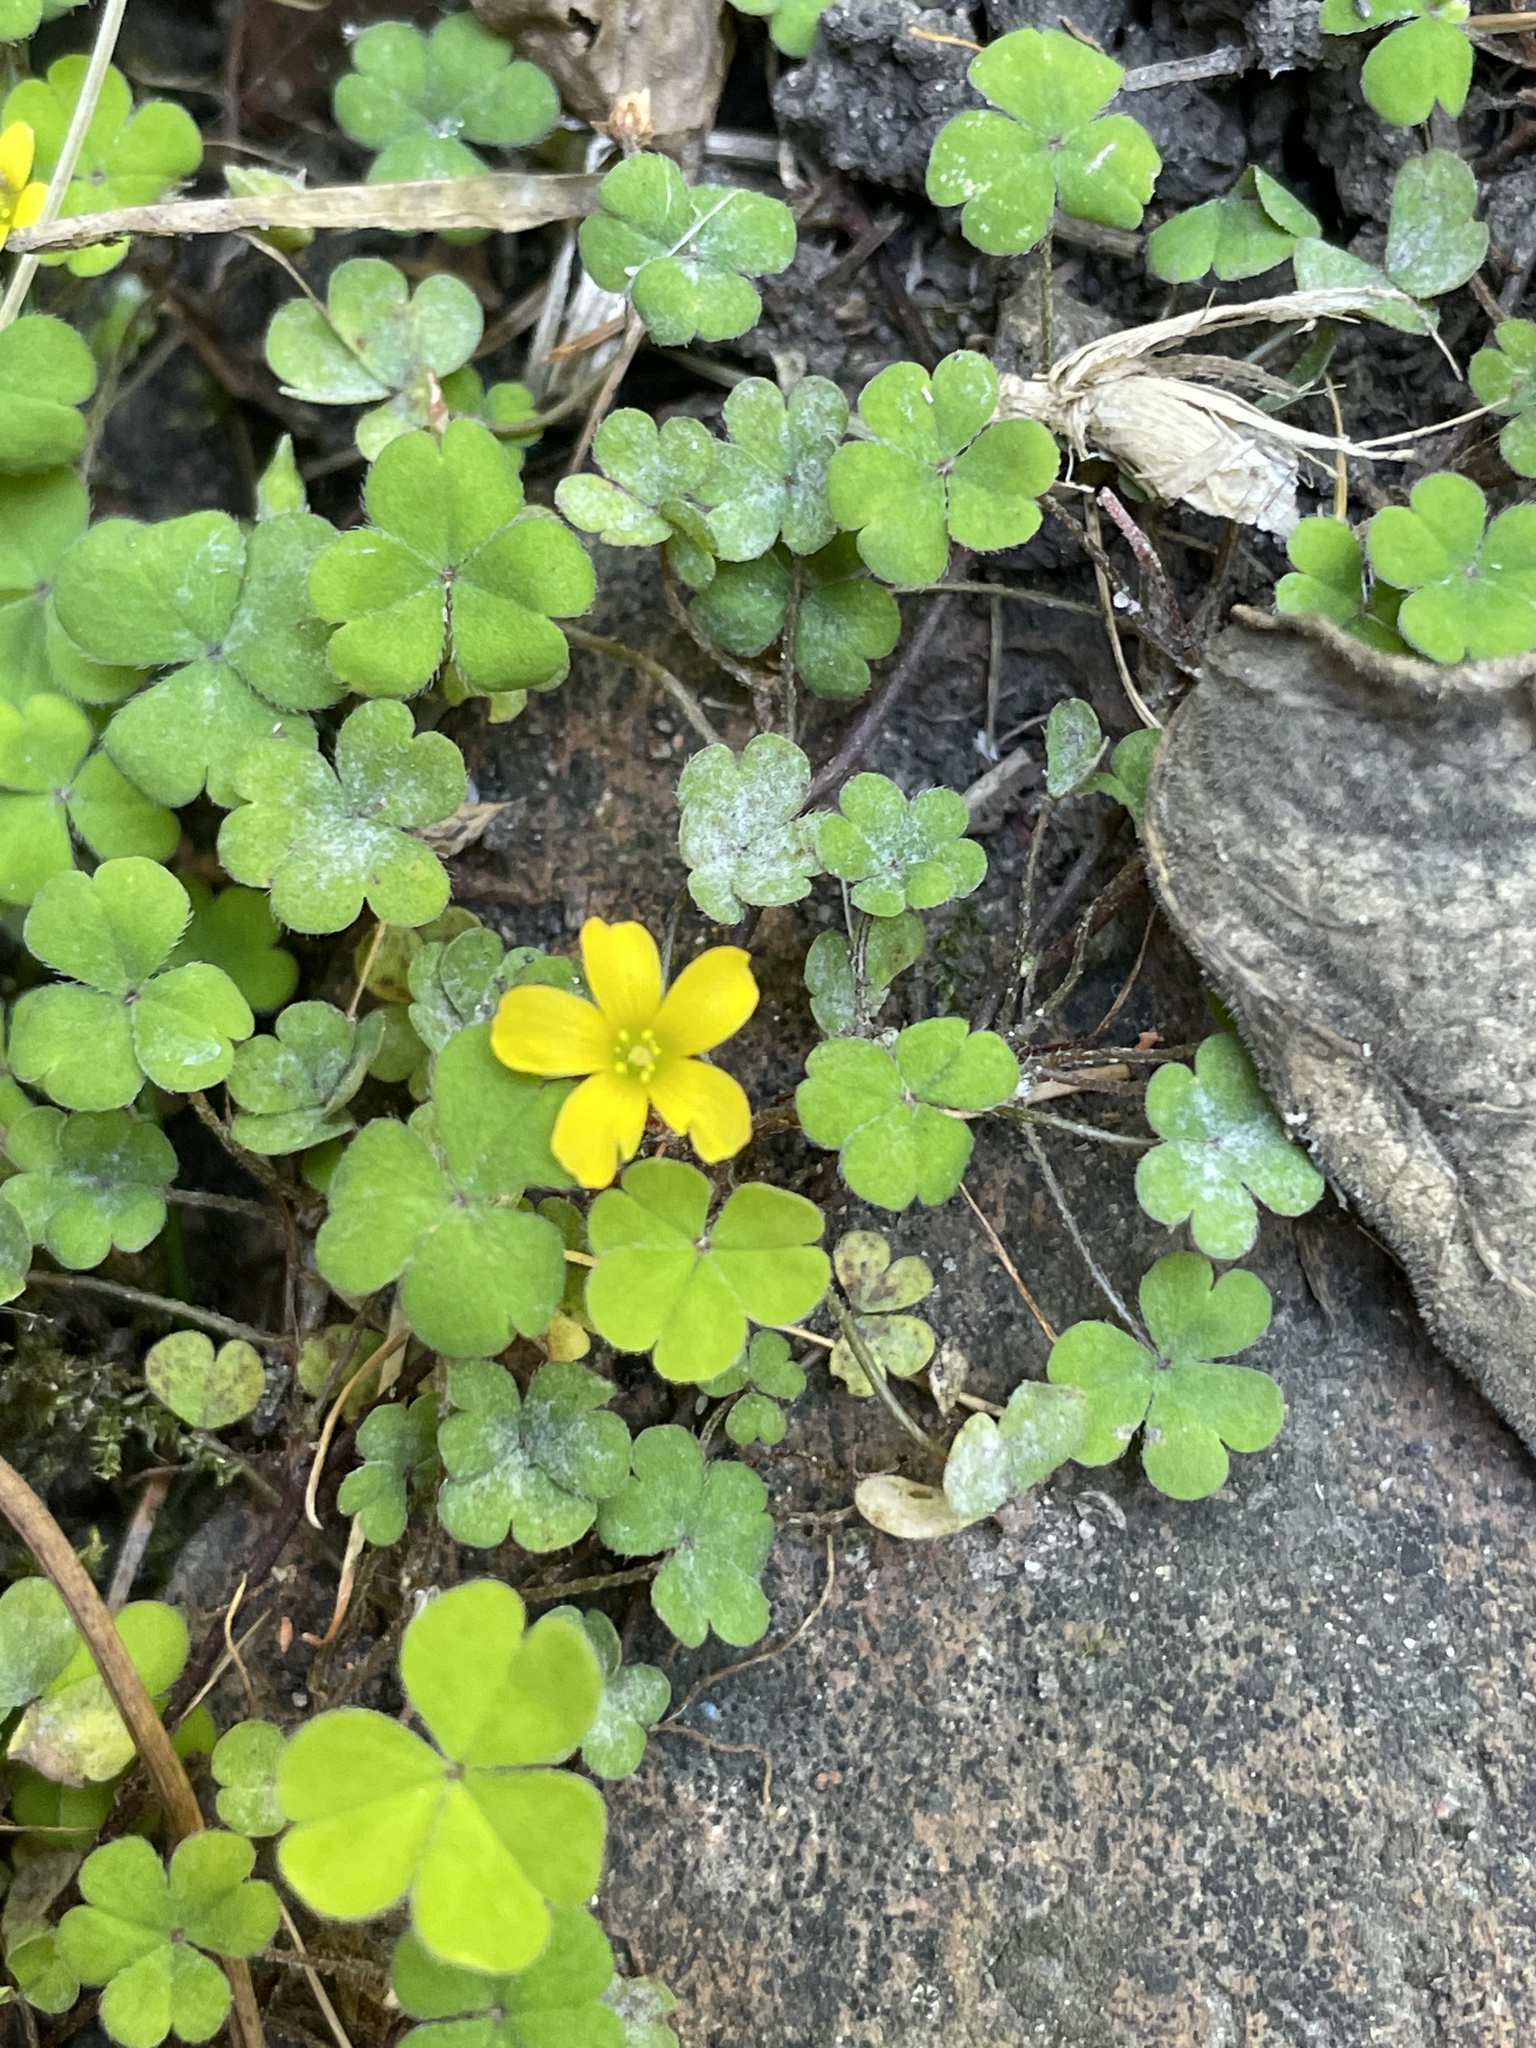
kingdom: Plantae
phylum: Tracheophyta
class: Magnoliopsida
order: Oxalidales
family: Oxalidaceae
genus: Oxalis
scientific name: Oxalis exilis
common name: Least yellow-sorrel
